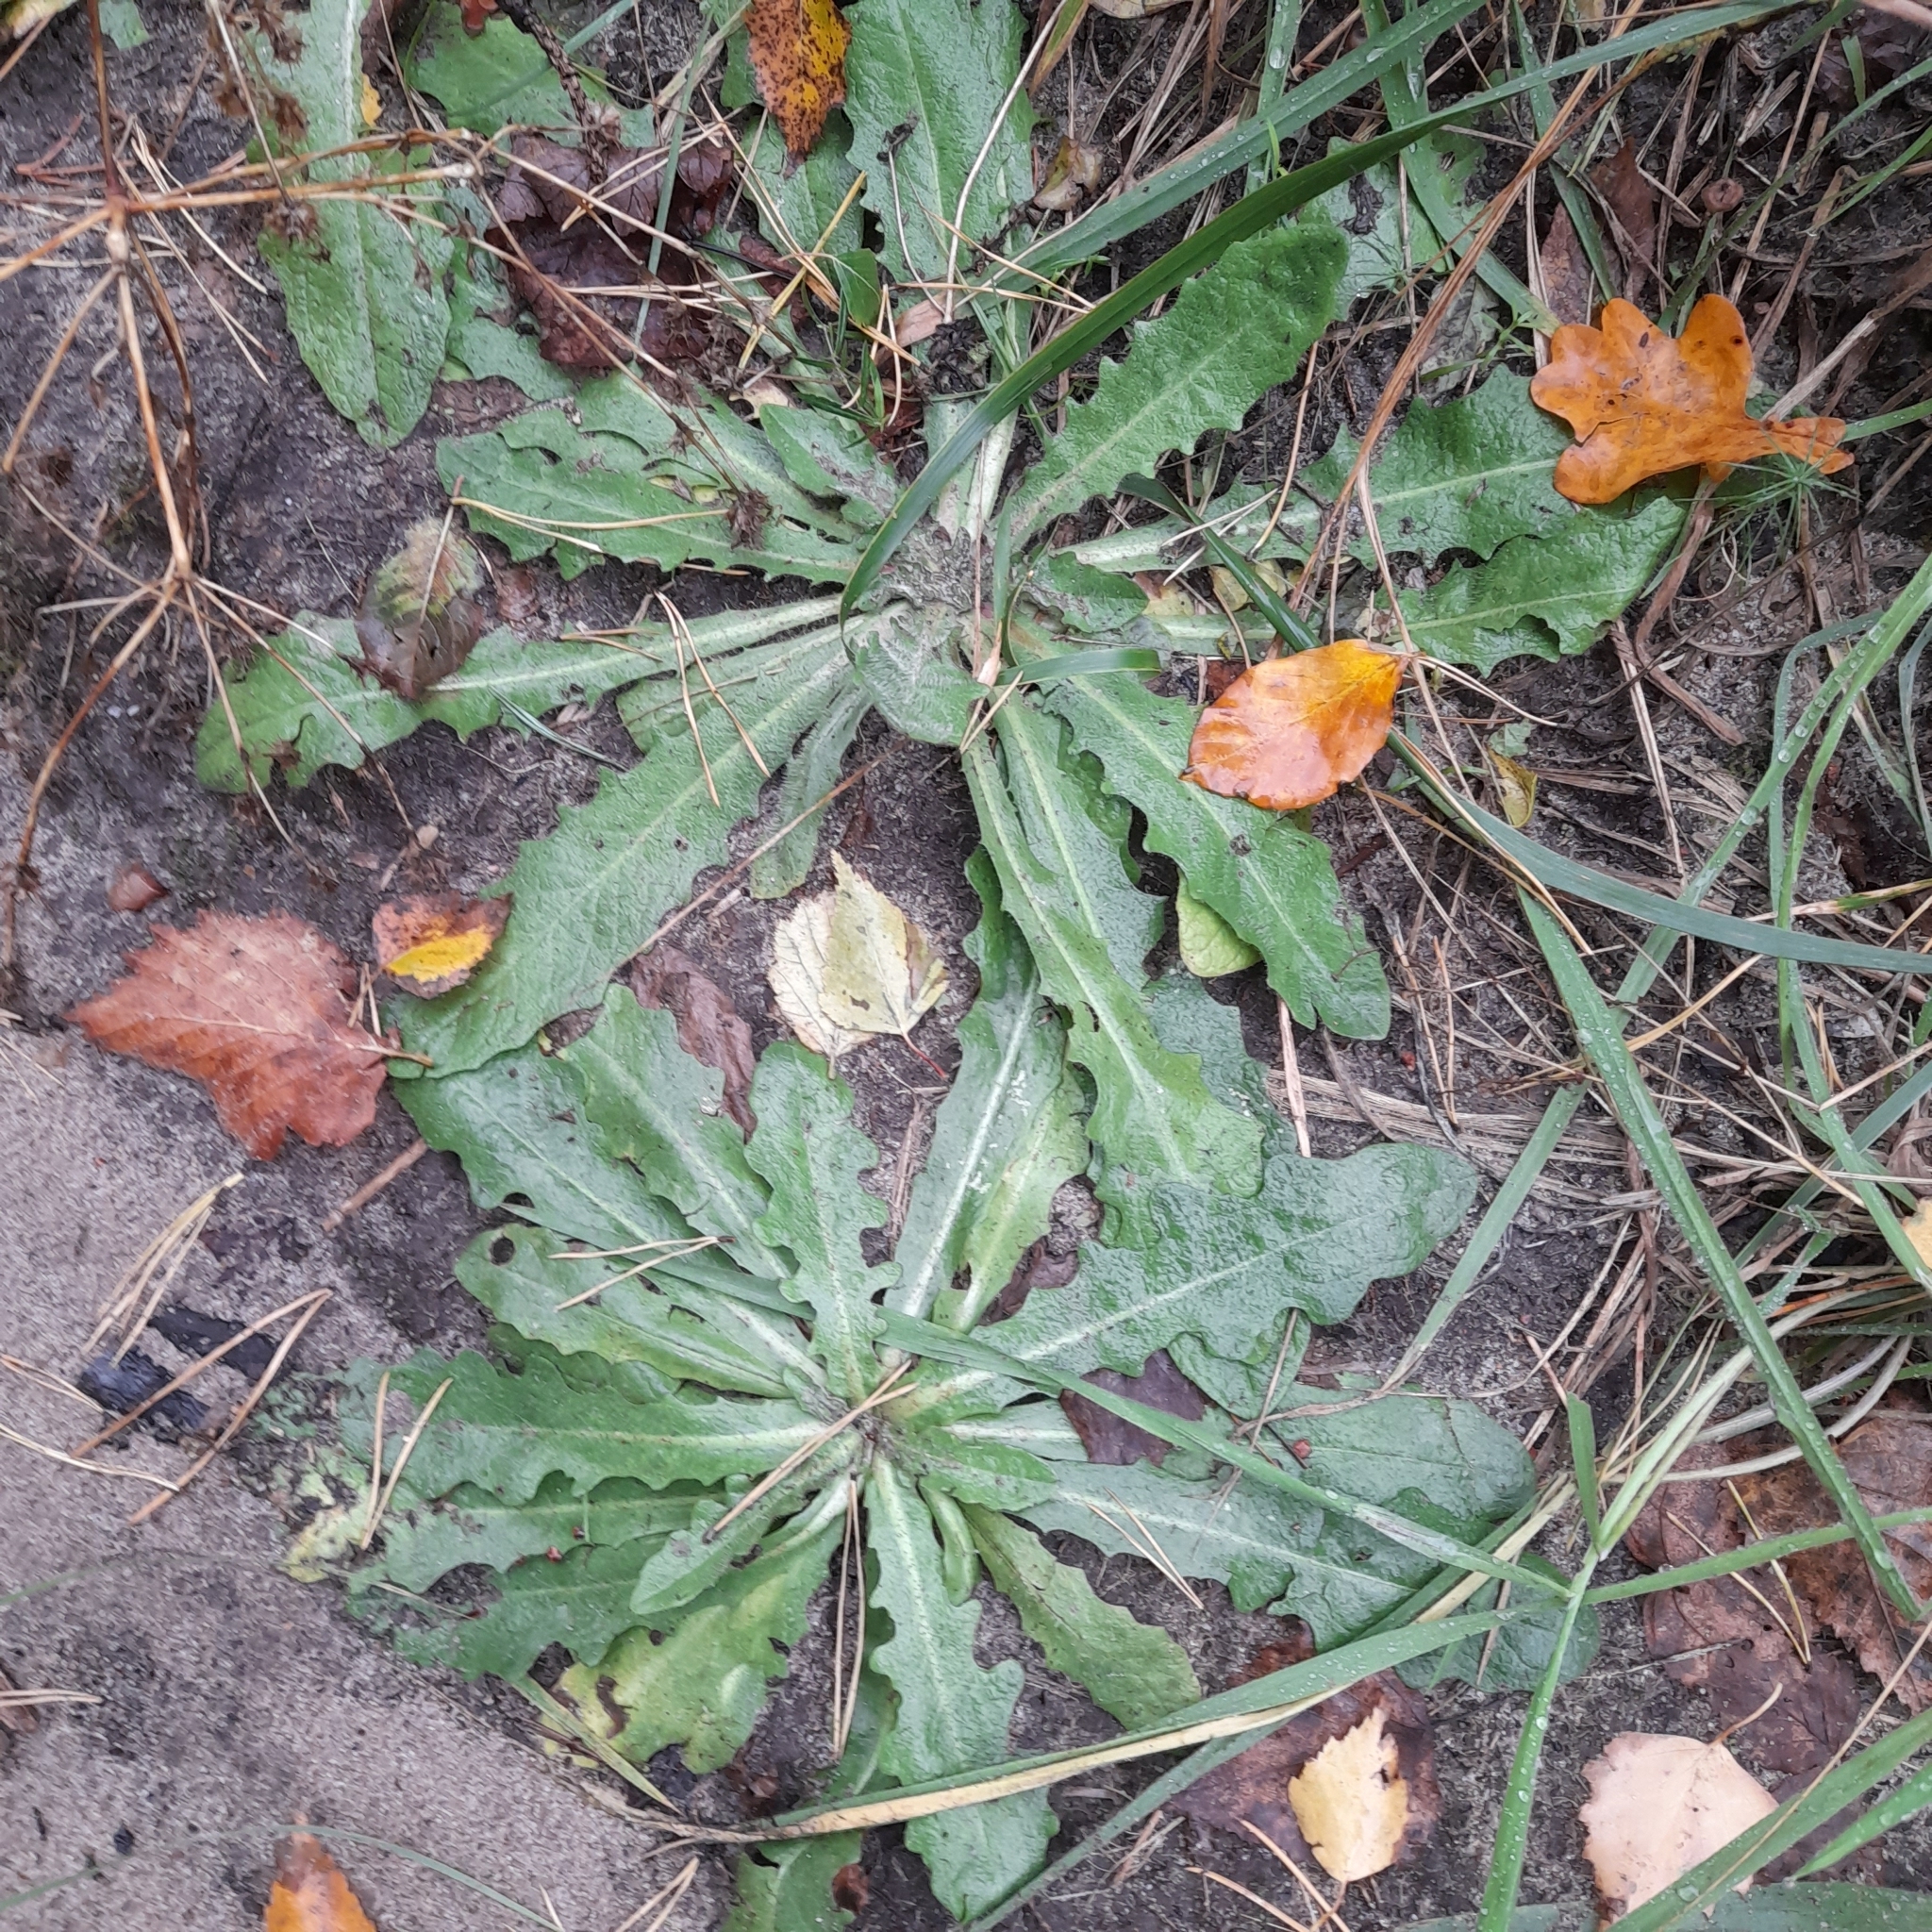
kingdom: Plantae
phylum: Tracheophyta
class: Magnoliopsida
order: Asterales
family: Asteraceae
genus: Hypochaeris
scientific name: Hypochaeris radicata
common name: Flatweed
